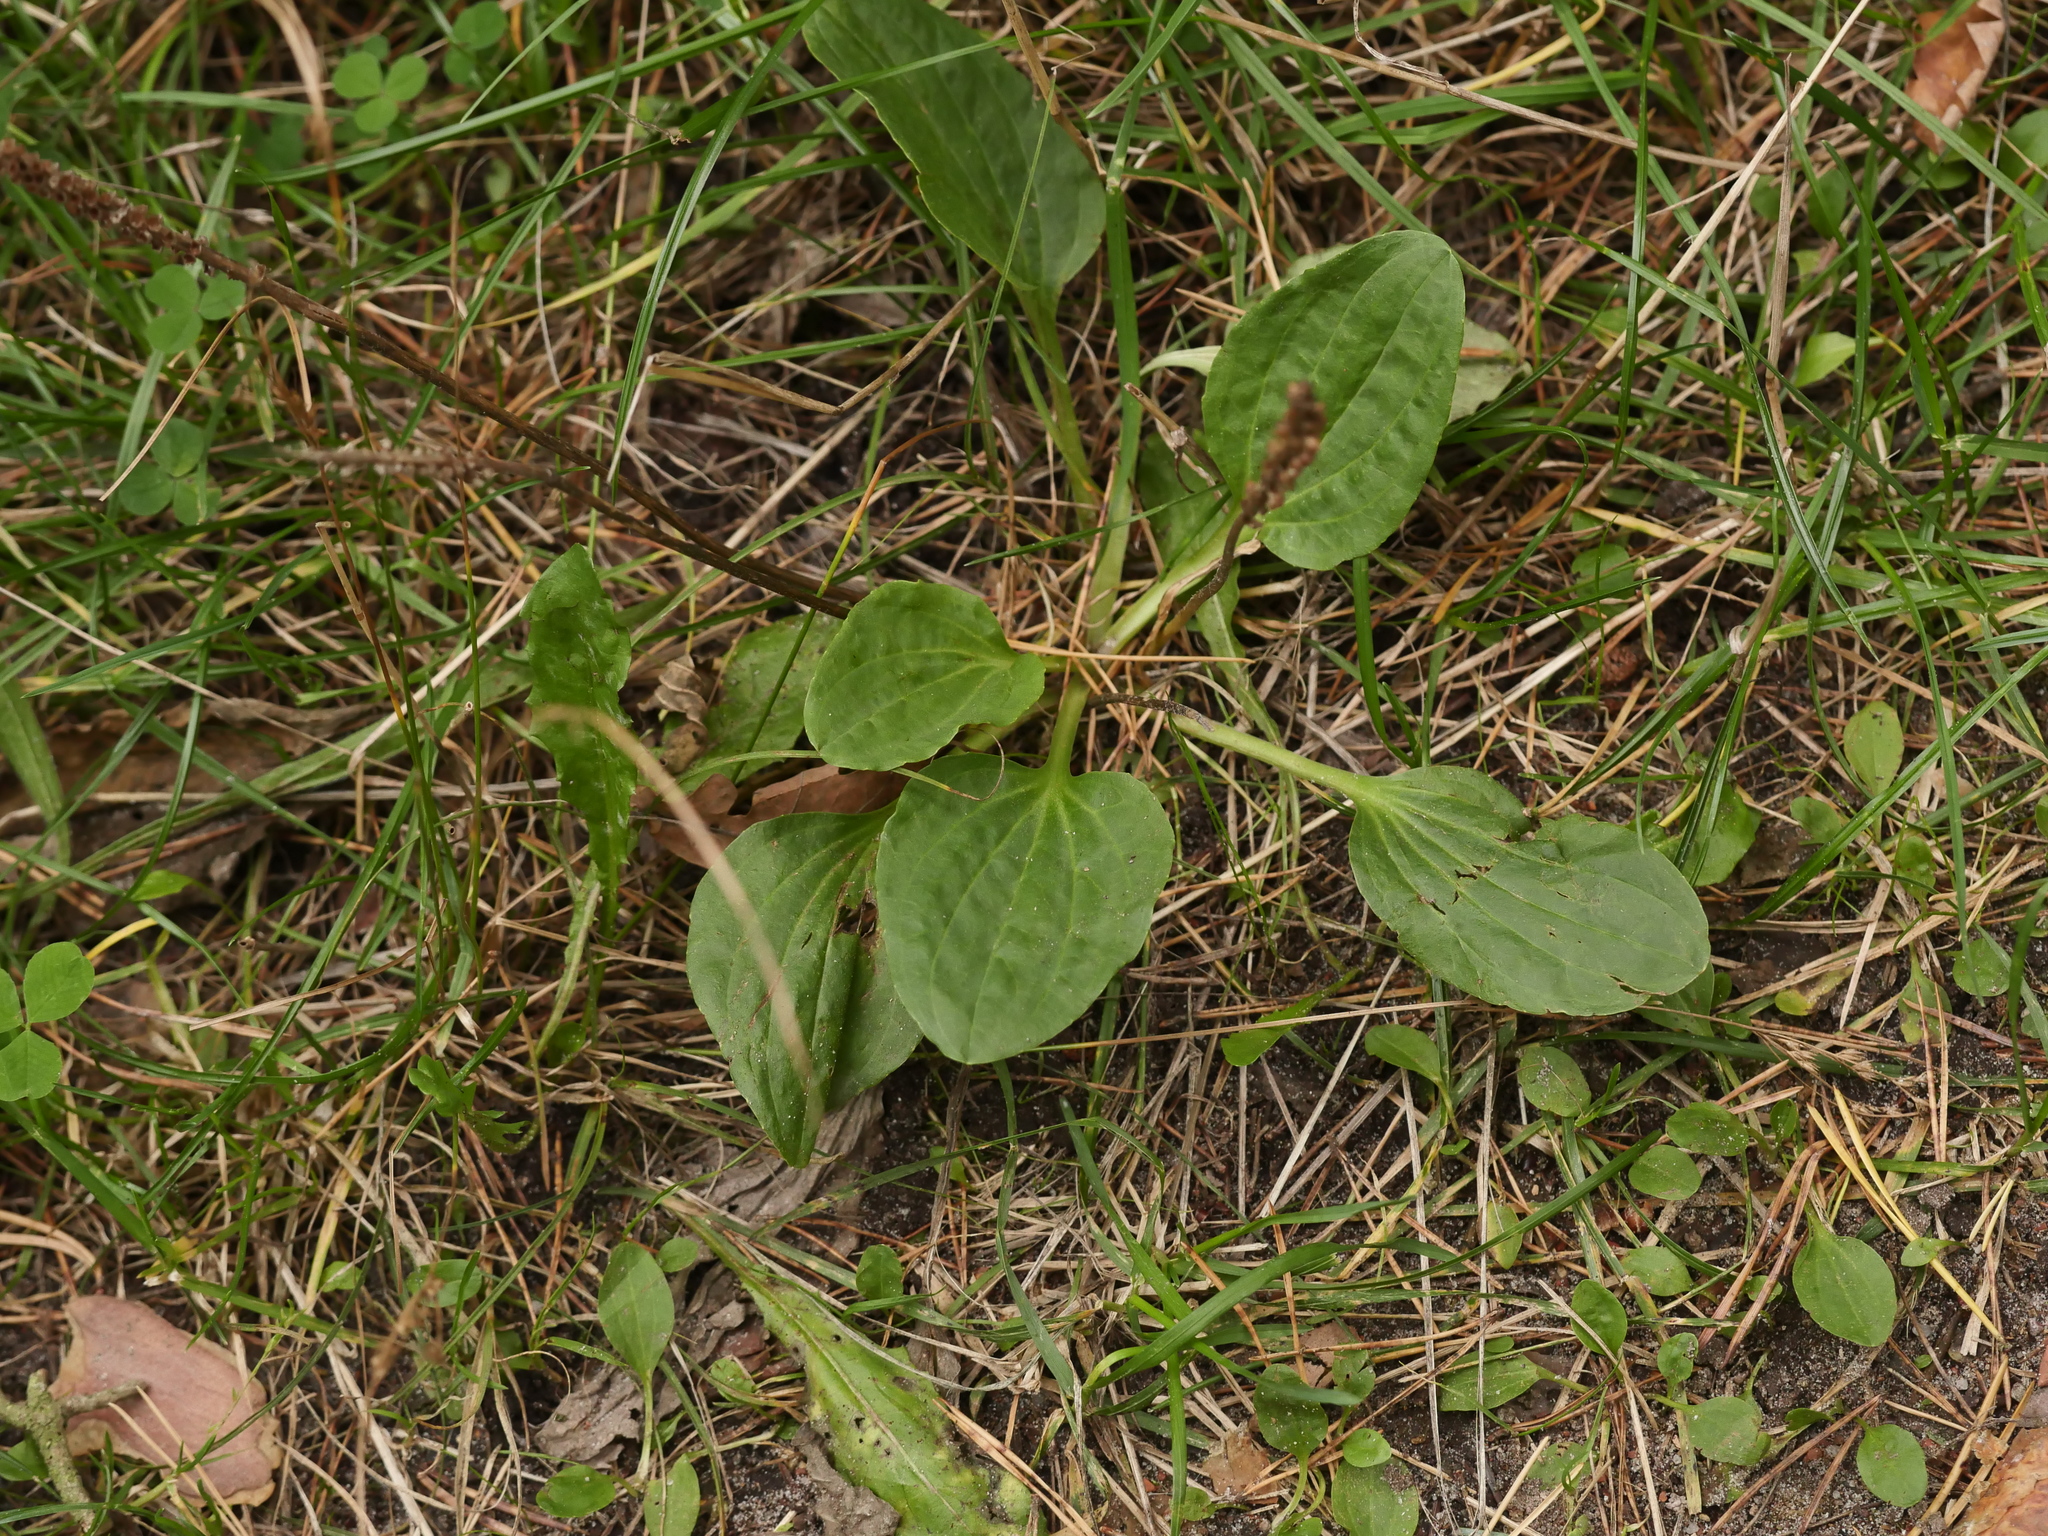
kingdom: Plantae
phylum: Tracheophyta
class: Magnoliopsida
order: Lamiales
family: Plantaginaceae
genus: Plantago
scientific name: Plantago major
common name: Common plantain
